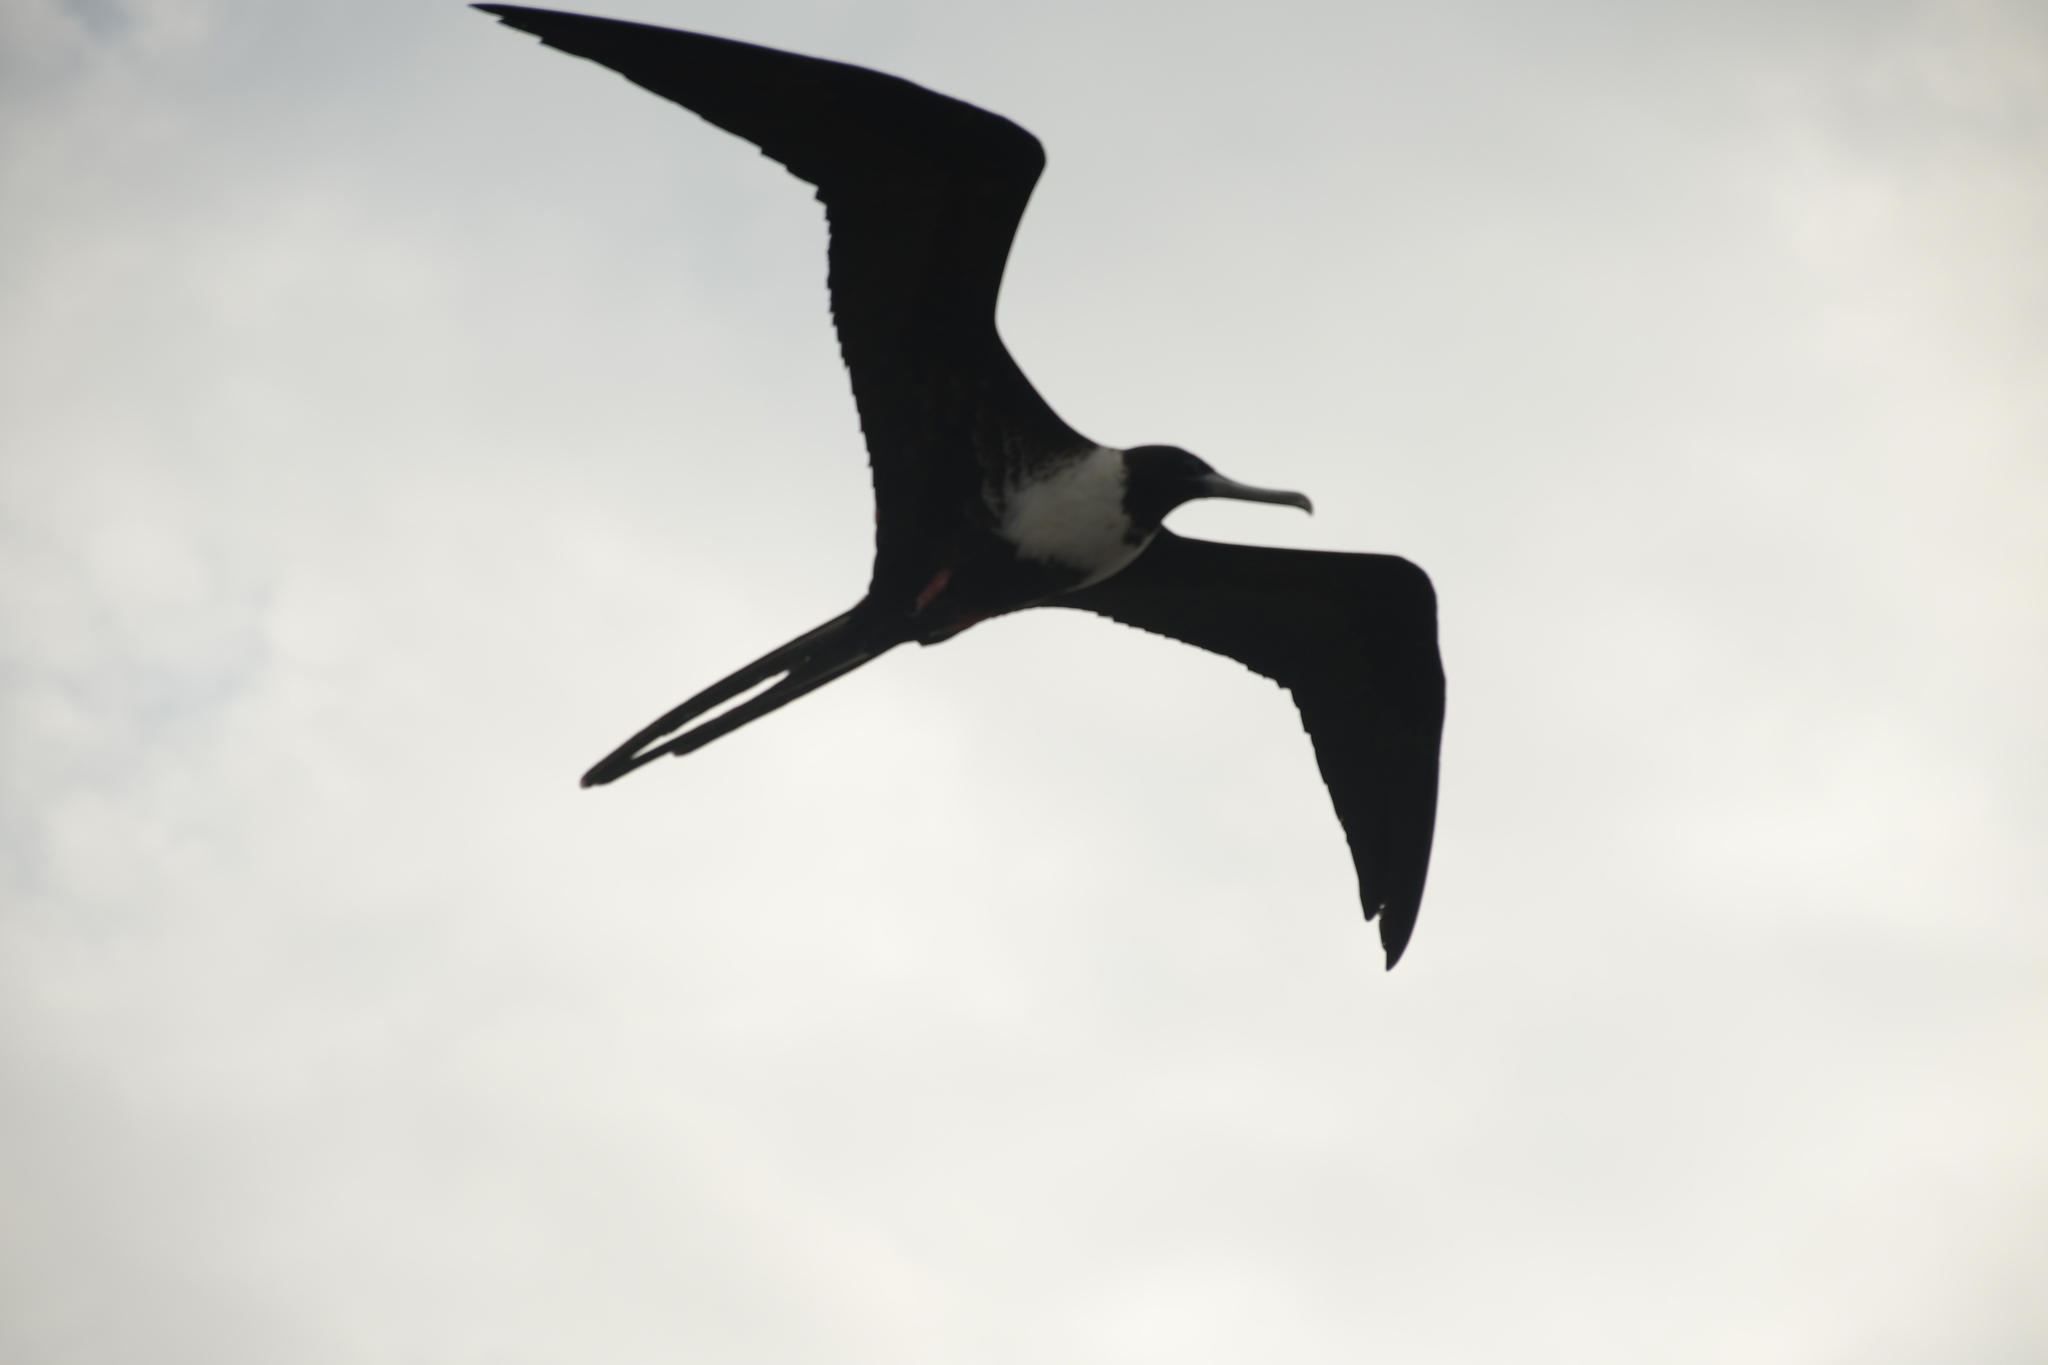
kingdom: Animalia
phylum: Chordata
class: Aves
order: Suliformes
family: Fregatidae
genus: Fregata
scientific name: Fregata magnificens
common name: Magnificent frigatebird
